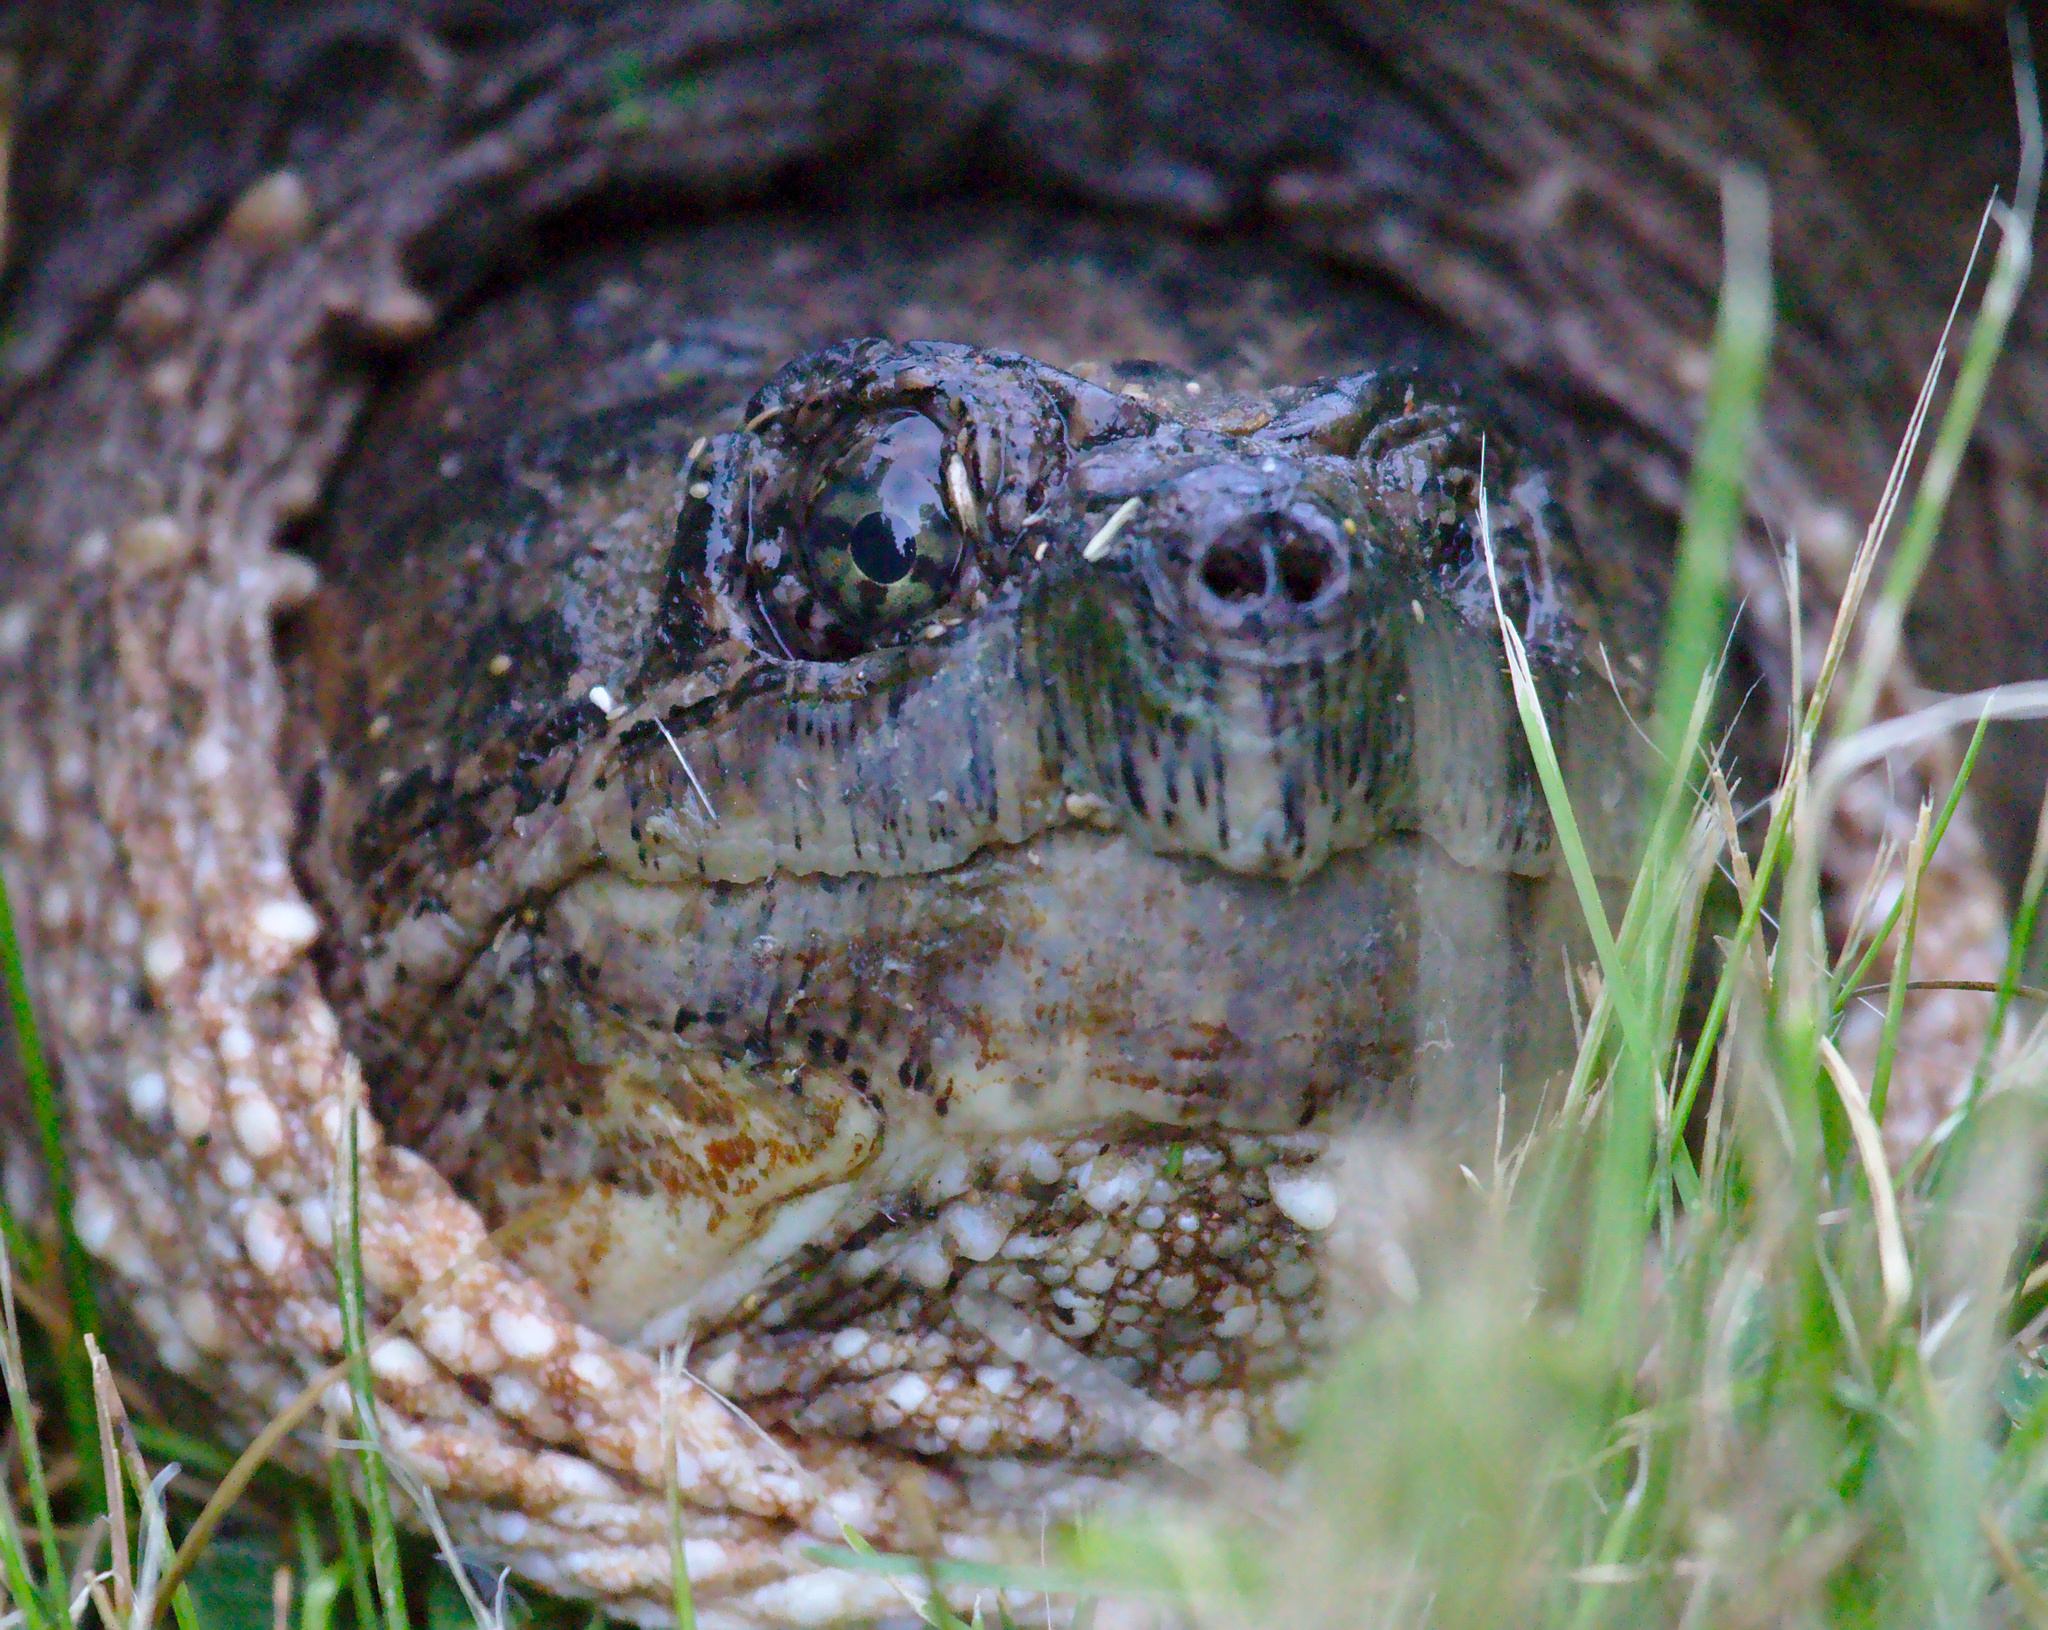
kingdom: Animalia
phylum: Chordata
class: Testudines
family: Chelydridae
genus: Chelydra
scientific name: Chelydra serpentina
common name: Common snapping turtle
